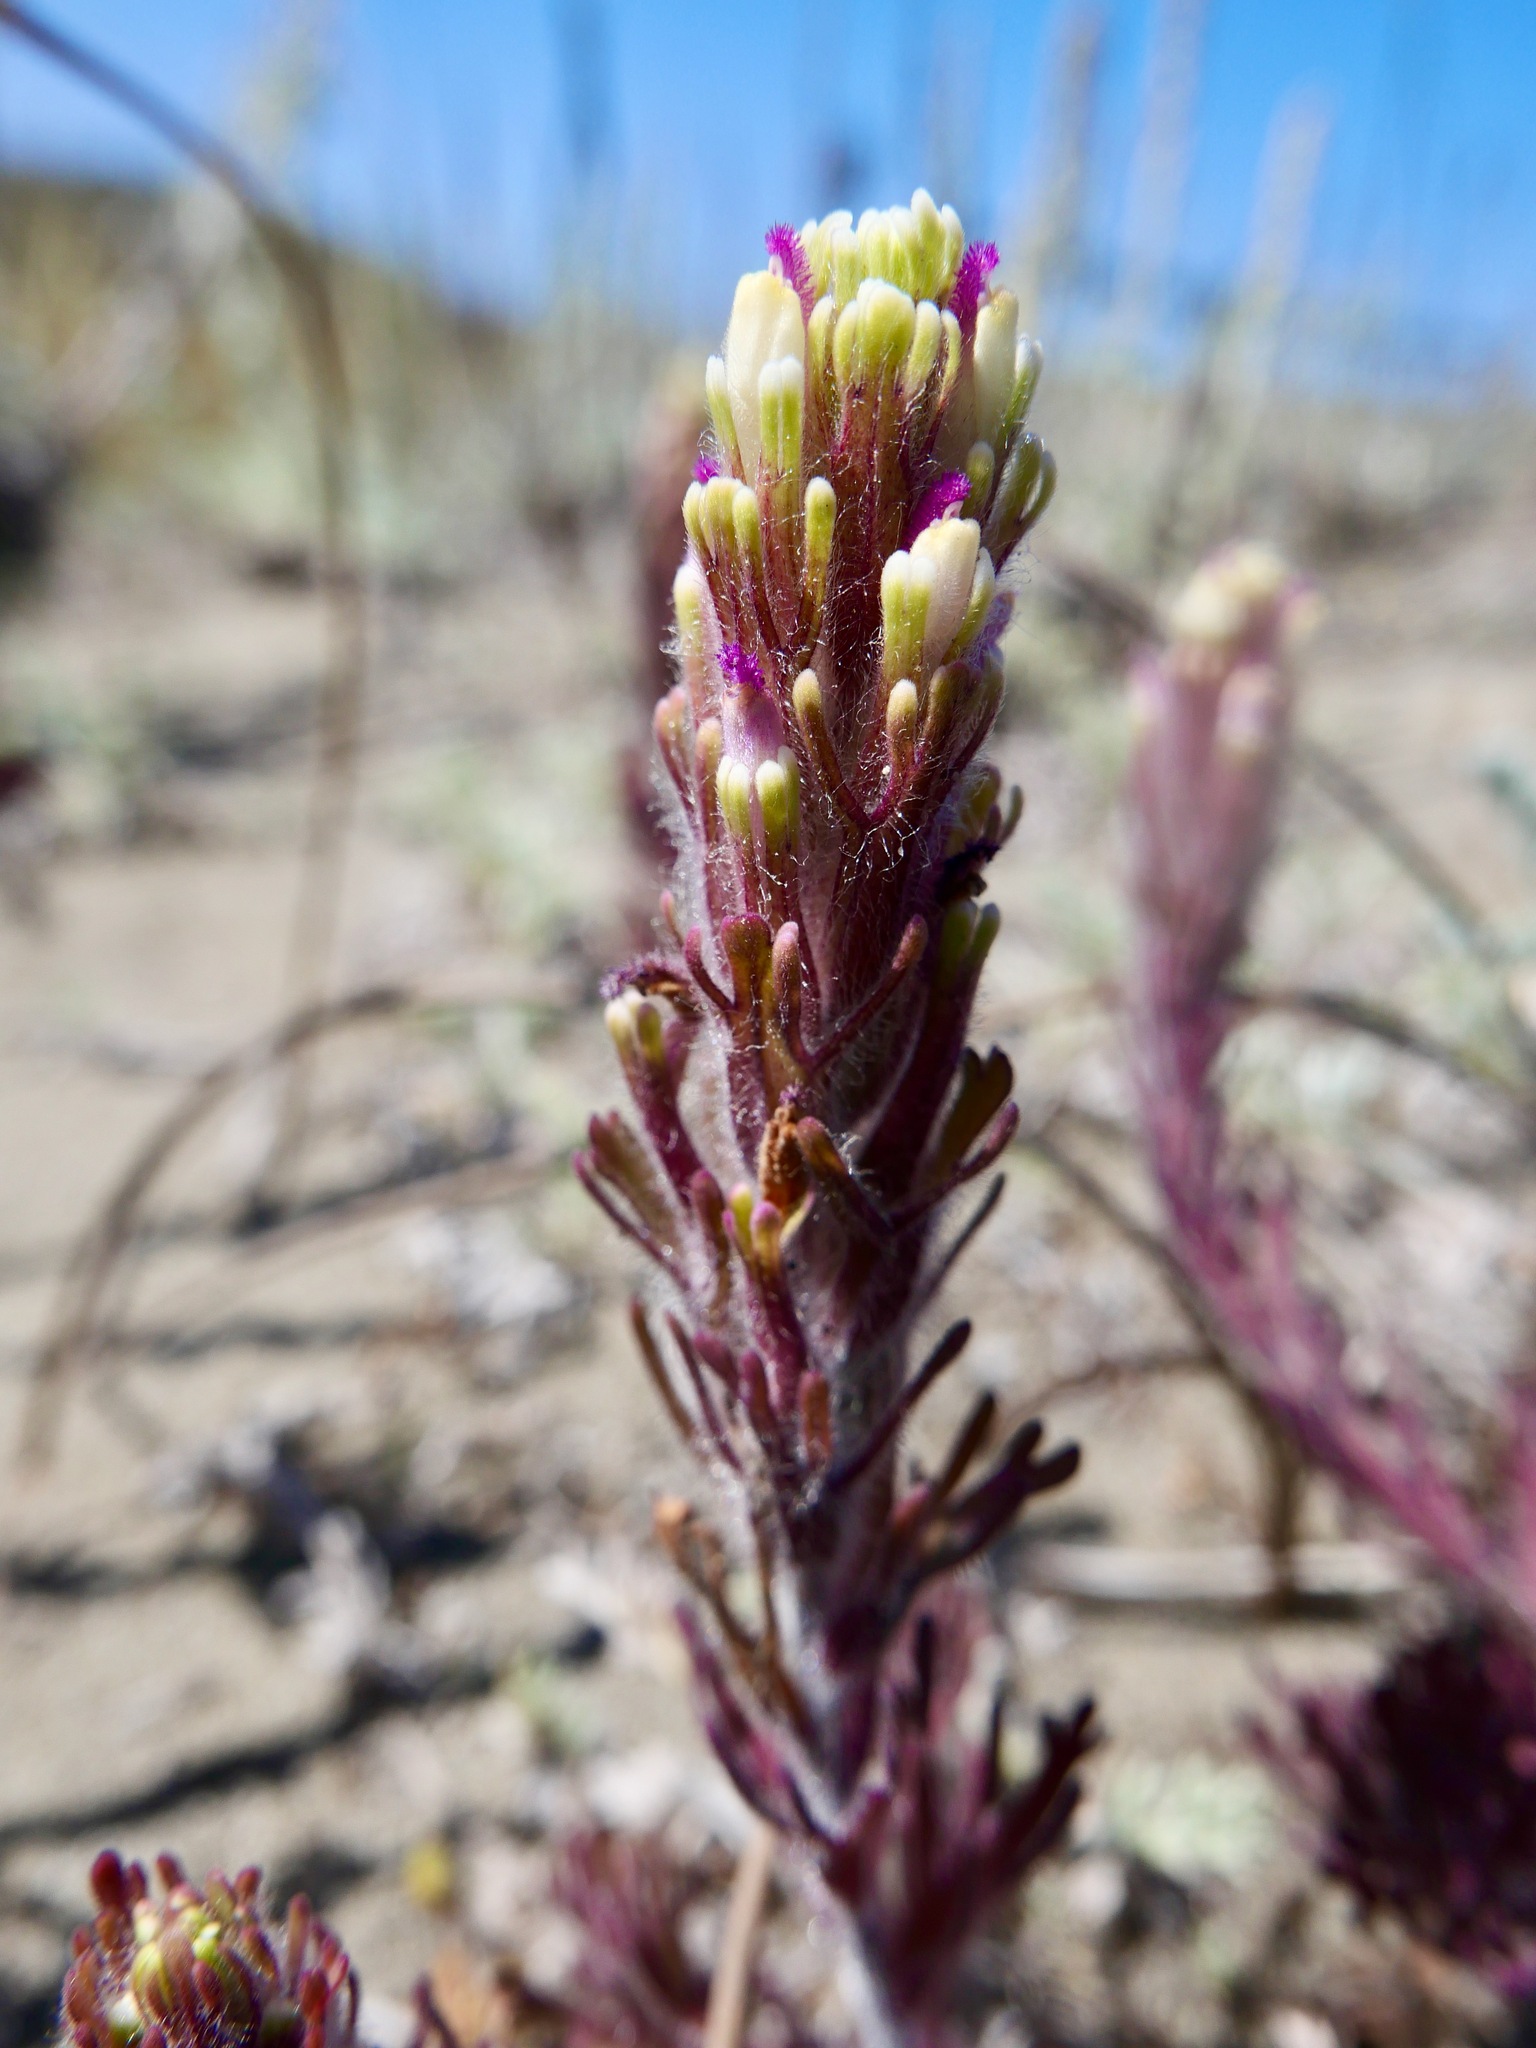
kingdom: Plantae
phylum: Tracheophyta
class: Magnoliopsida
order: Lamiales
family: Orobanchaceae
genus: Castilleja
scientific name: Castilleja exserta
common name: Purple owl-clover
